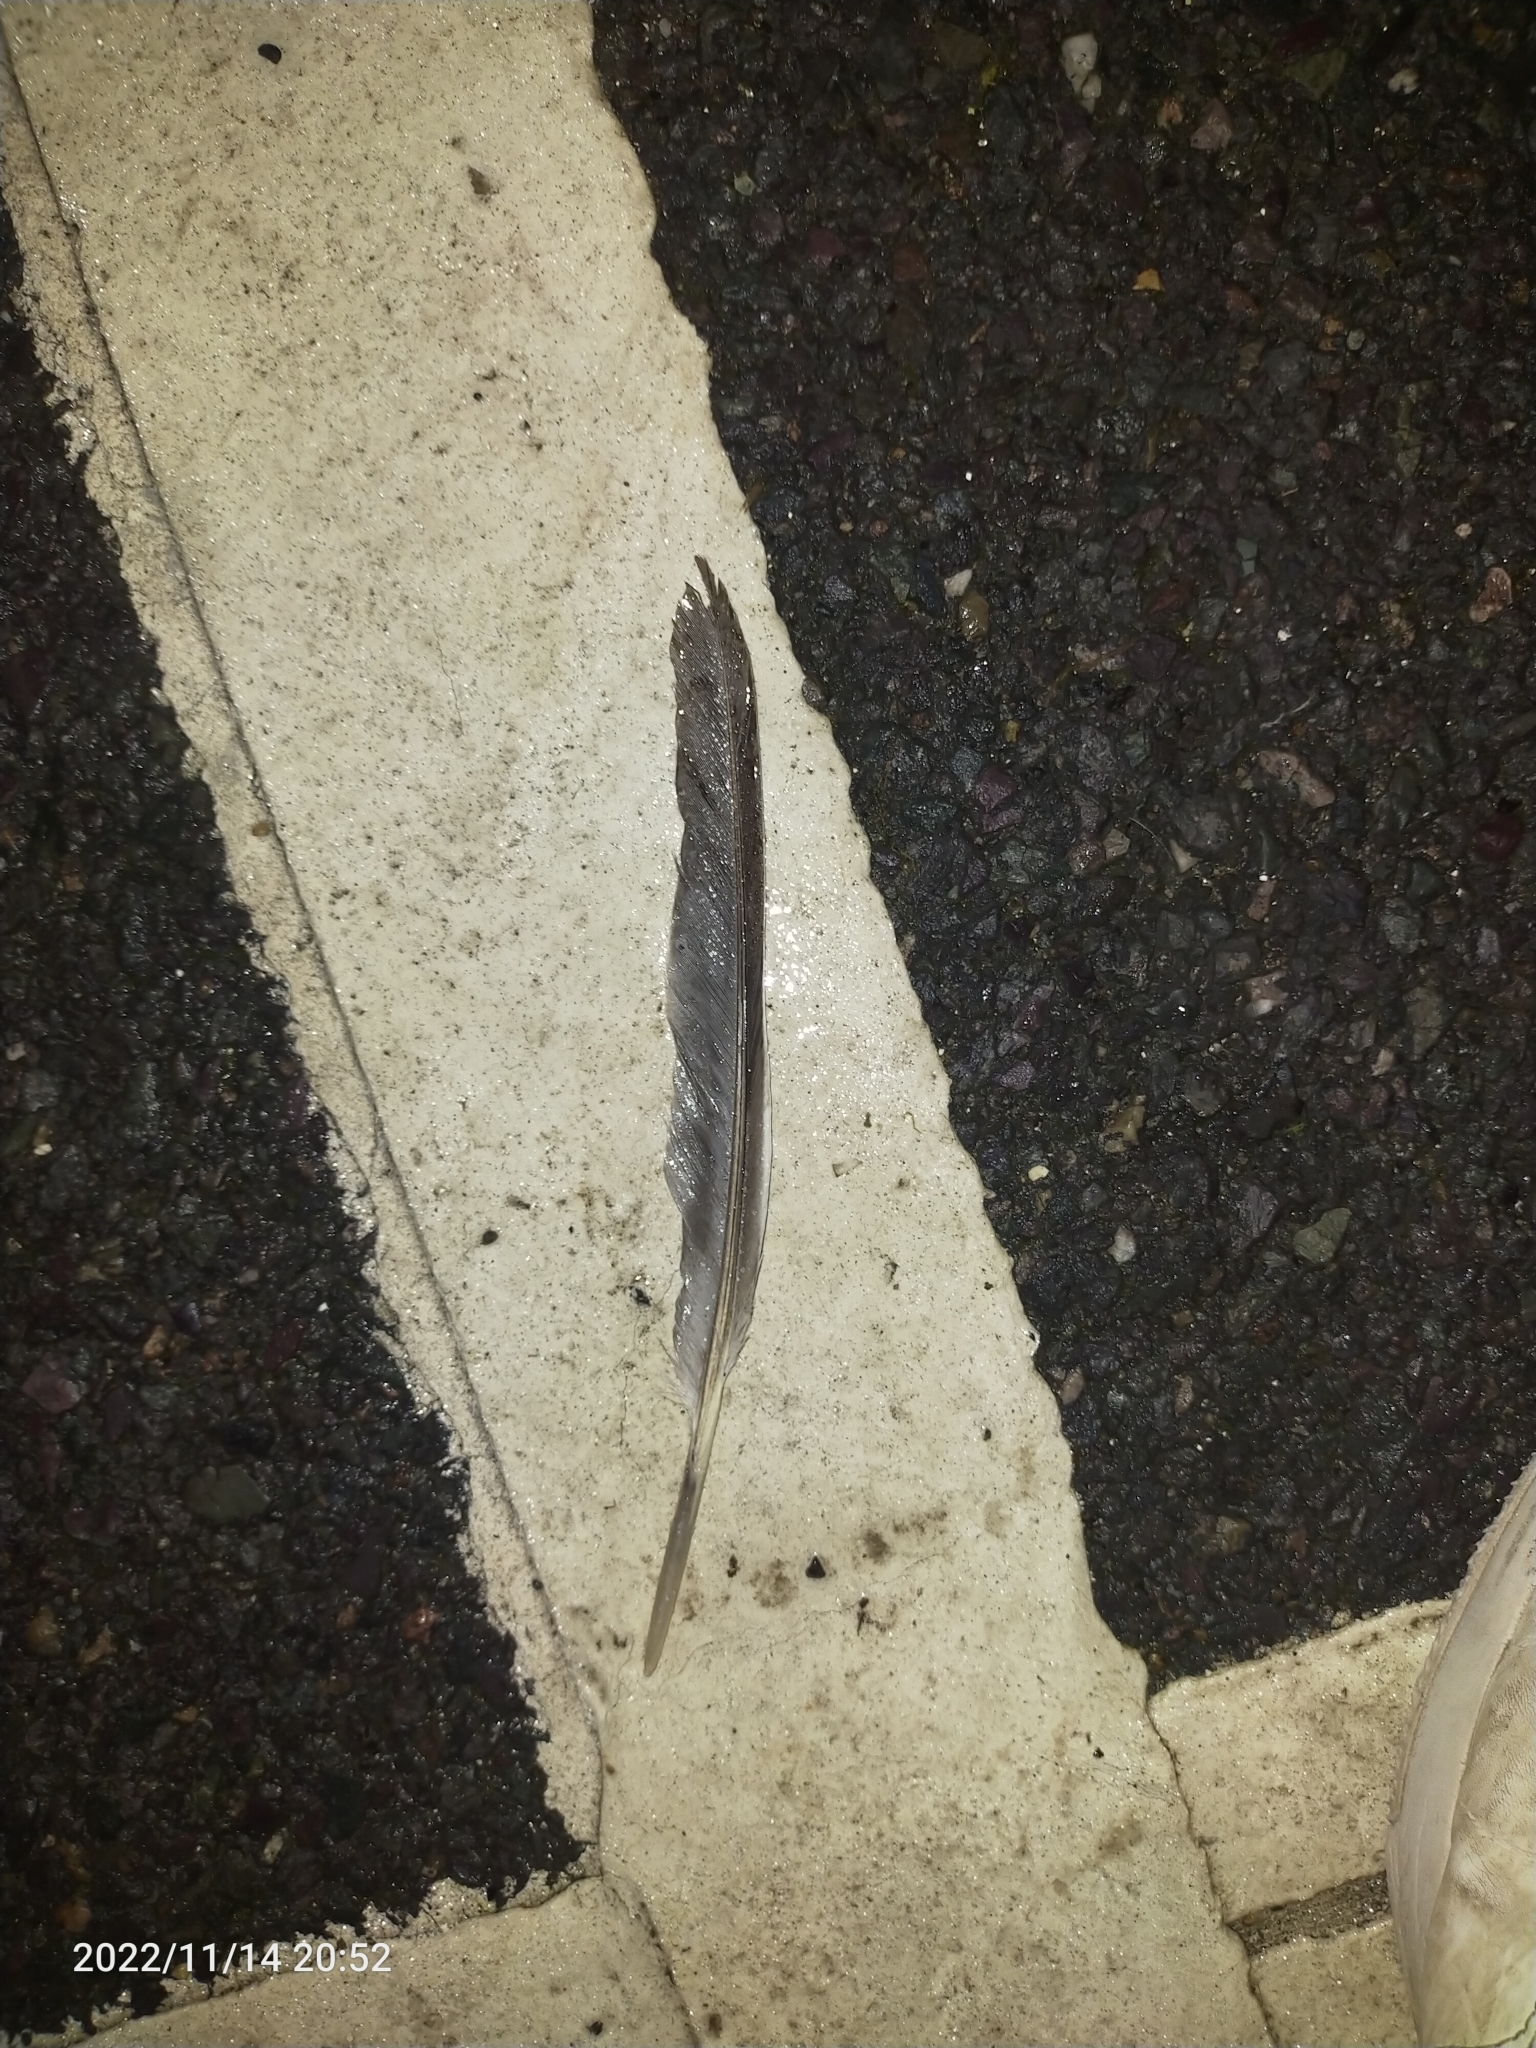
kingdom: Animalia
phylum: Chordata
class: Aves
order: Columbiformes
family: Columbidae
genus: Columba
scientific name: Columba palumbus
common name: Common wood pigeon
